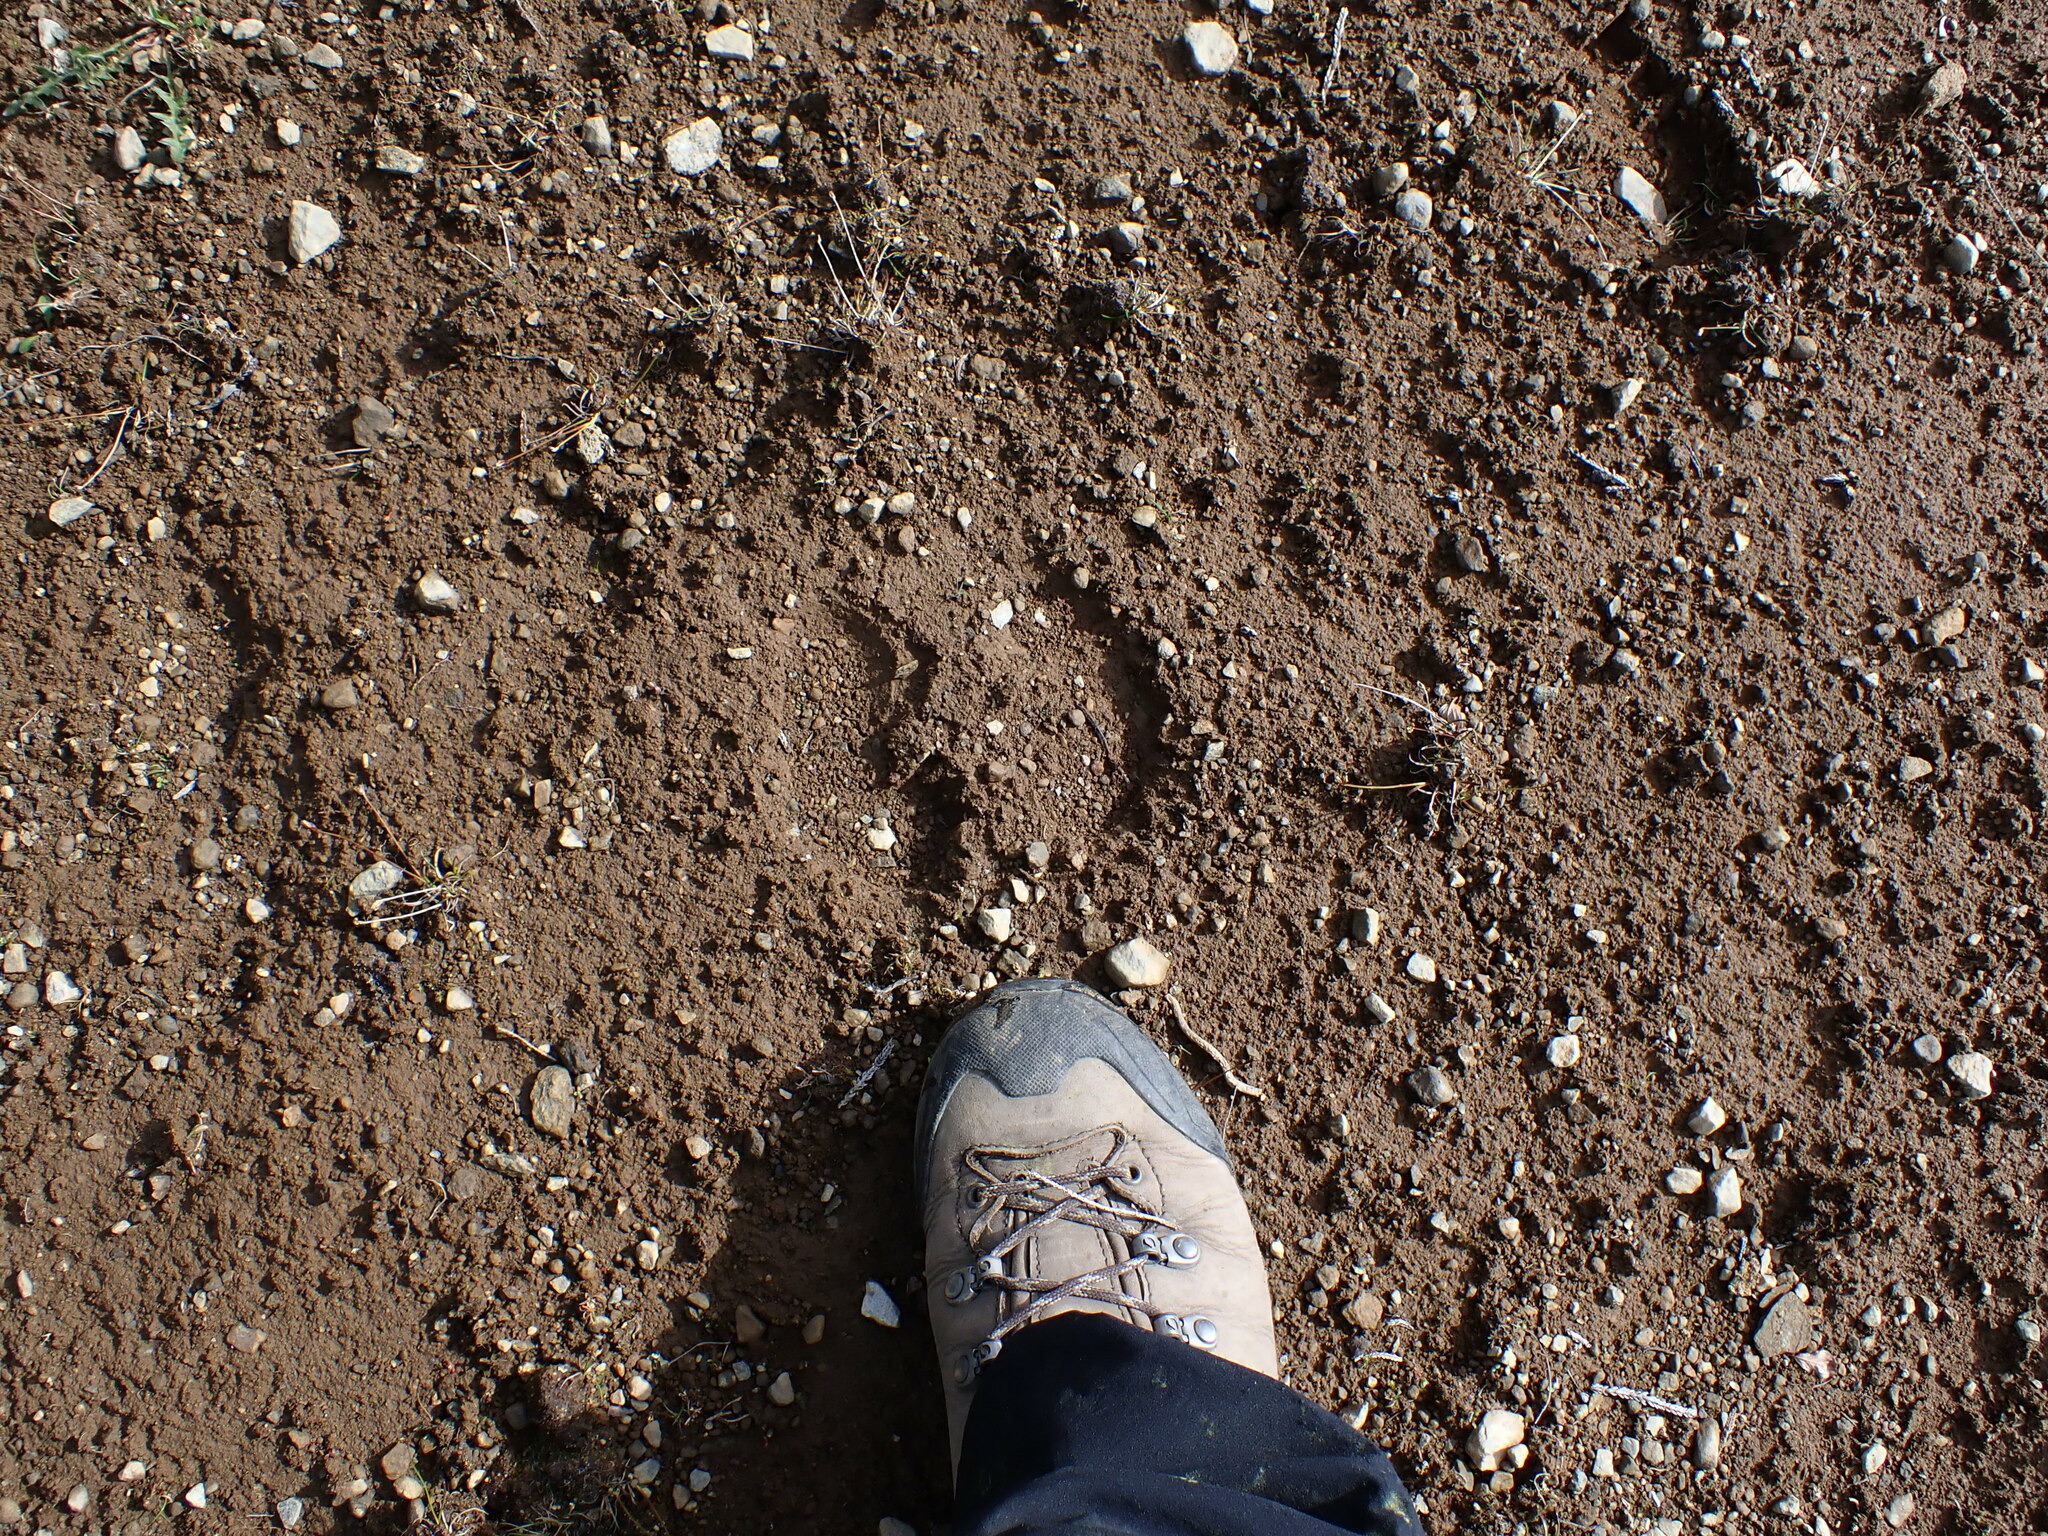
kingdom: Animalia
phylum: Chordata
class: Mammalia
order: Artiodactyla
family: Cervidae
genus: Rangifer
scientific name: Rangifer tarandus
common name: Reindeer
